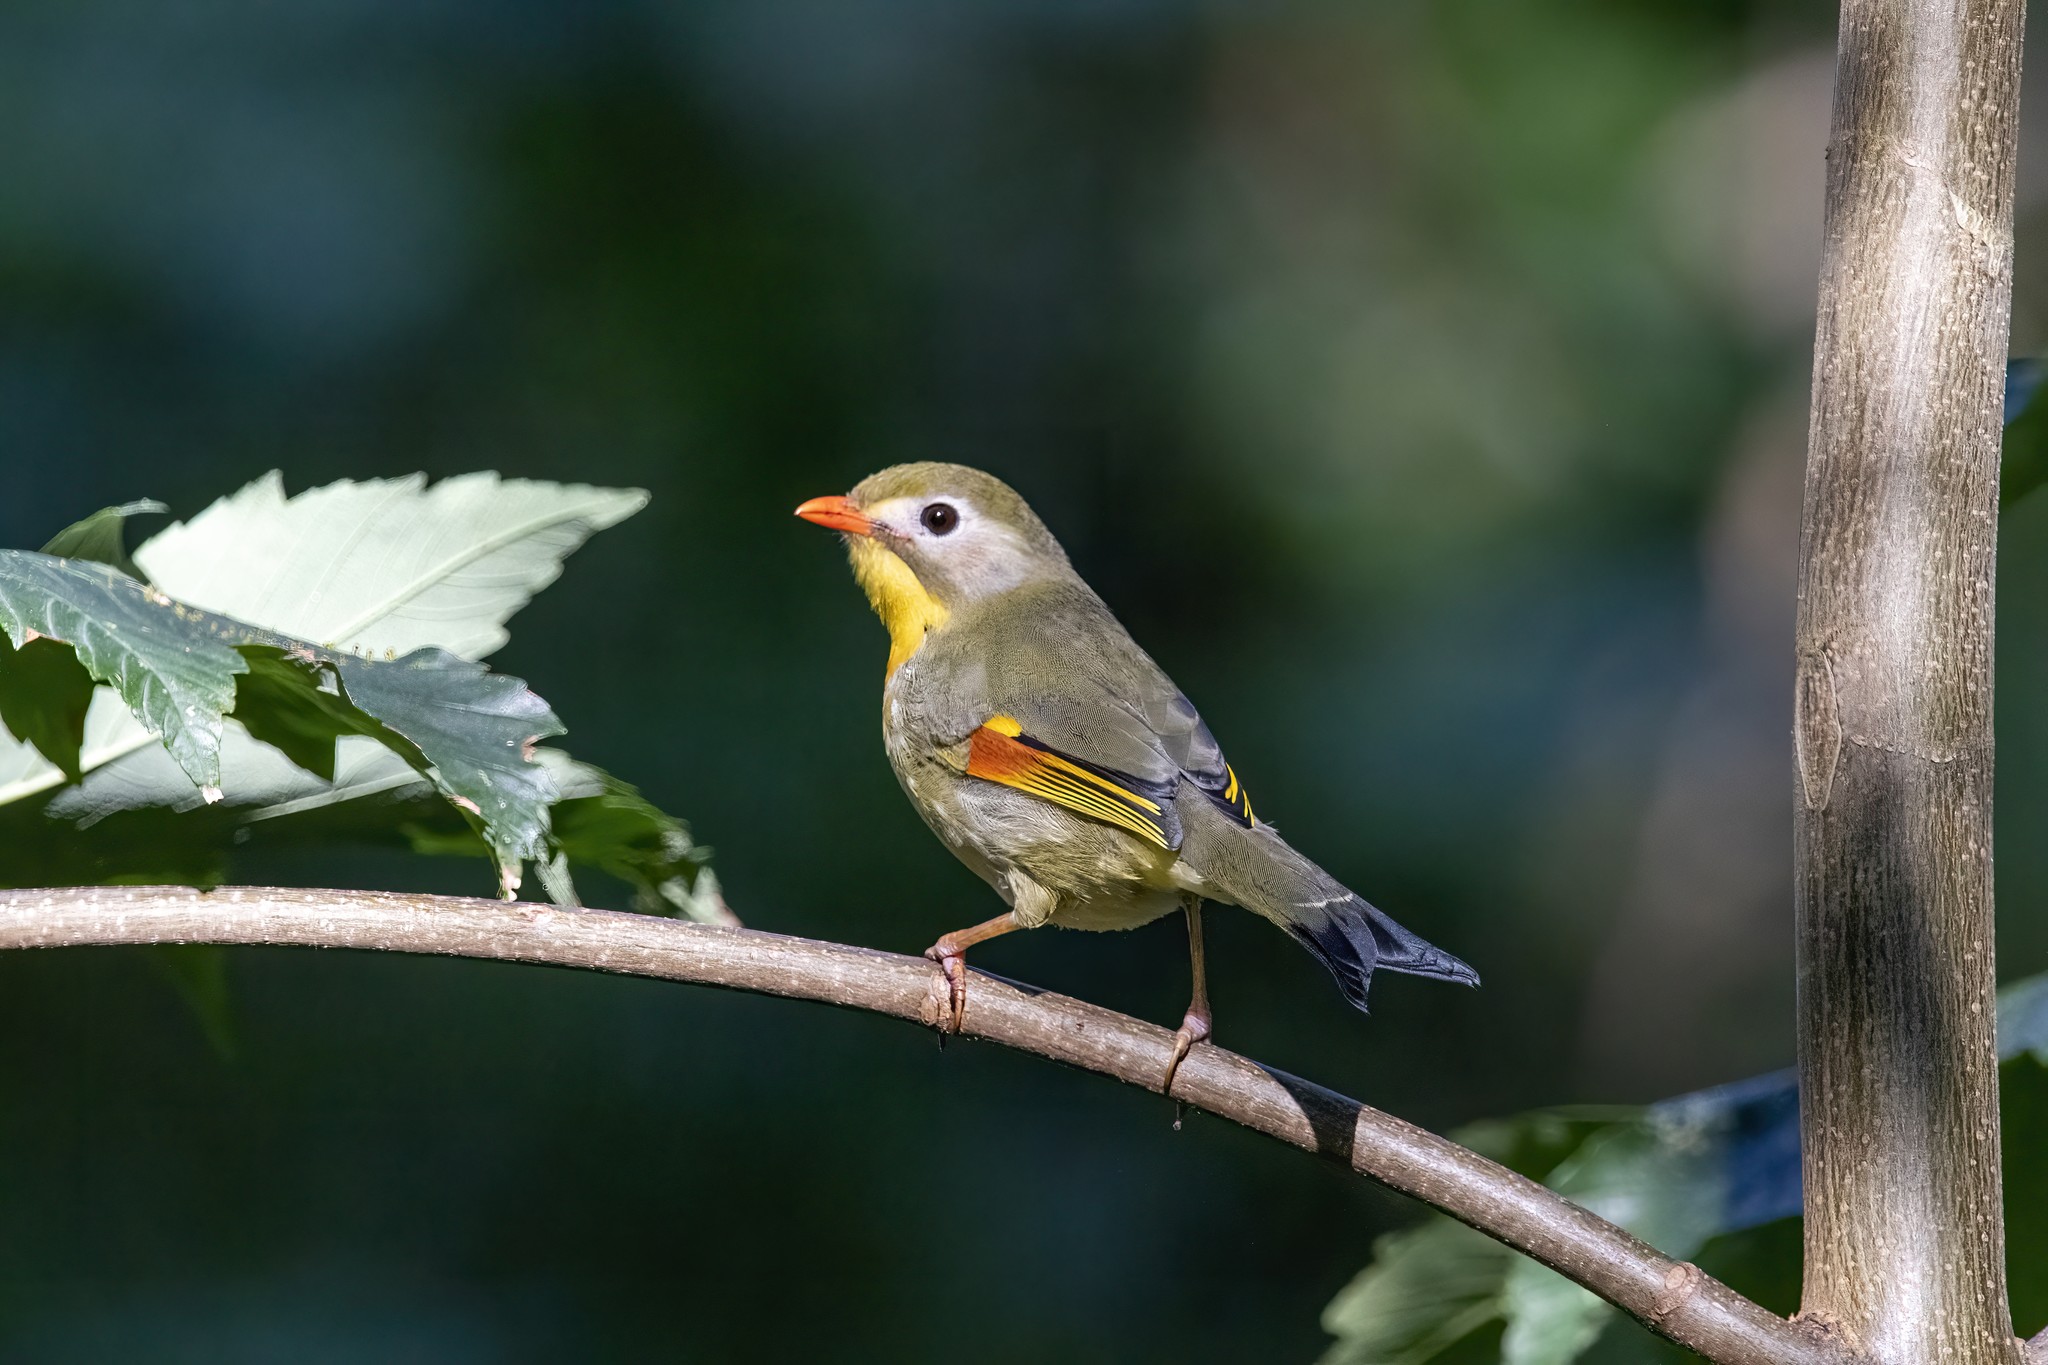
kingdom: Animalia
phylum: Chordata
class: Aves
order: Passeriformes
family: Leiothrichidae
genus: Leiothrix
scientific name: Leiothrix lutea
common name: Red-billed leiothrix
